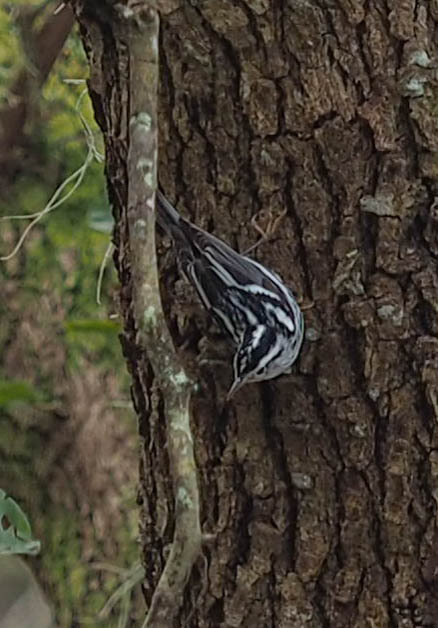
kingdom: Animalia
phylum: Chordata
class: Aves
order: Passeriformes
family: Parulidae
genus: Mniotilta
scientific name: Mniotilta varia
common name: Black-and-white warbler
